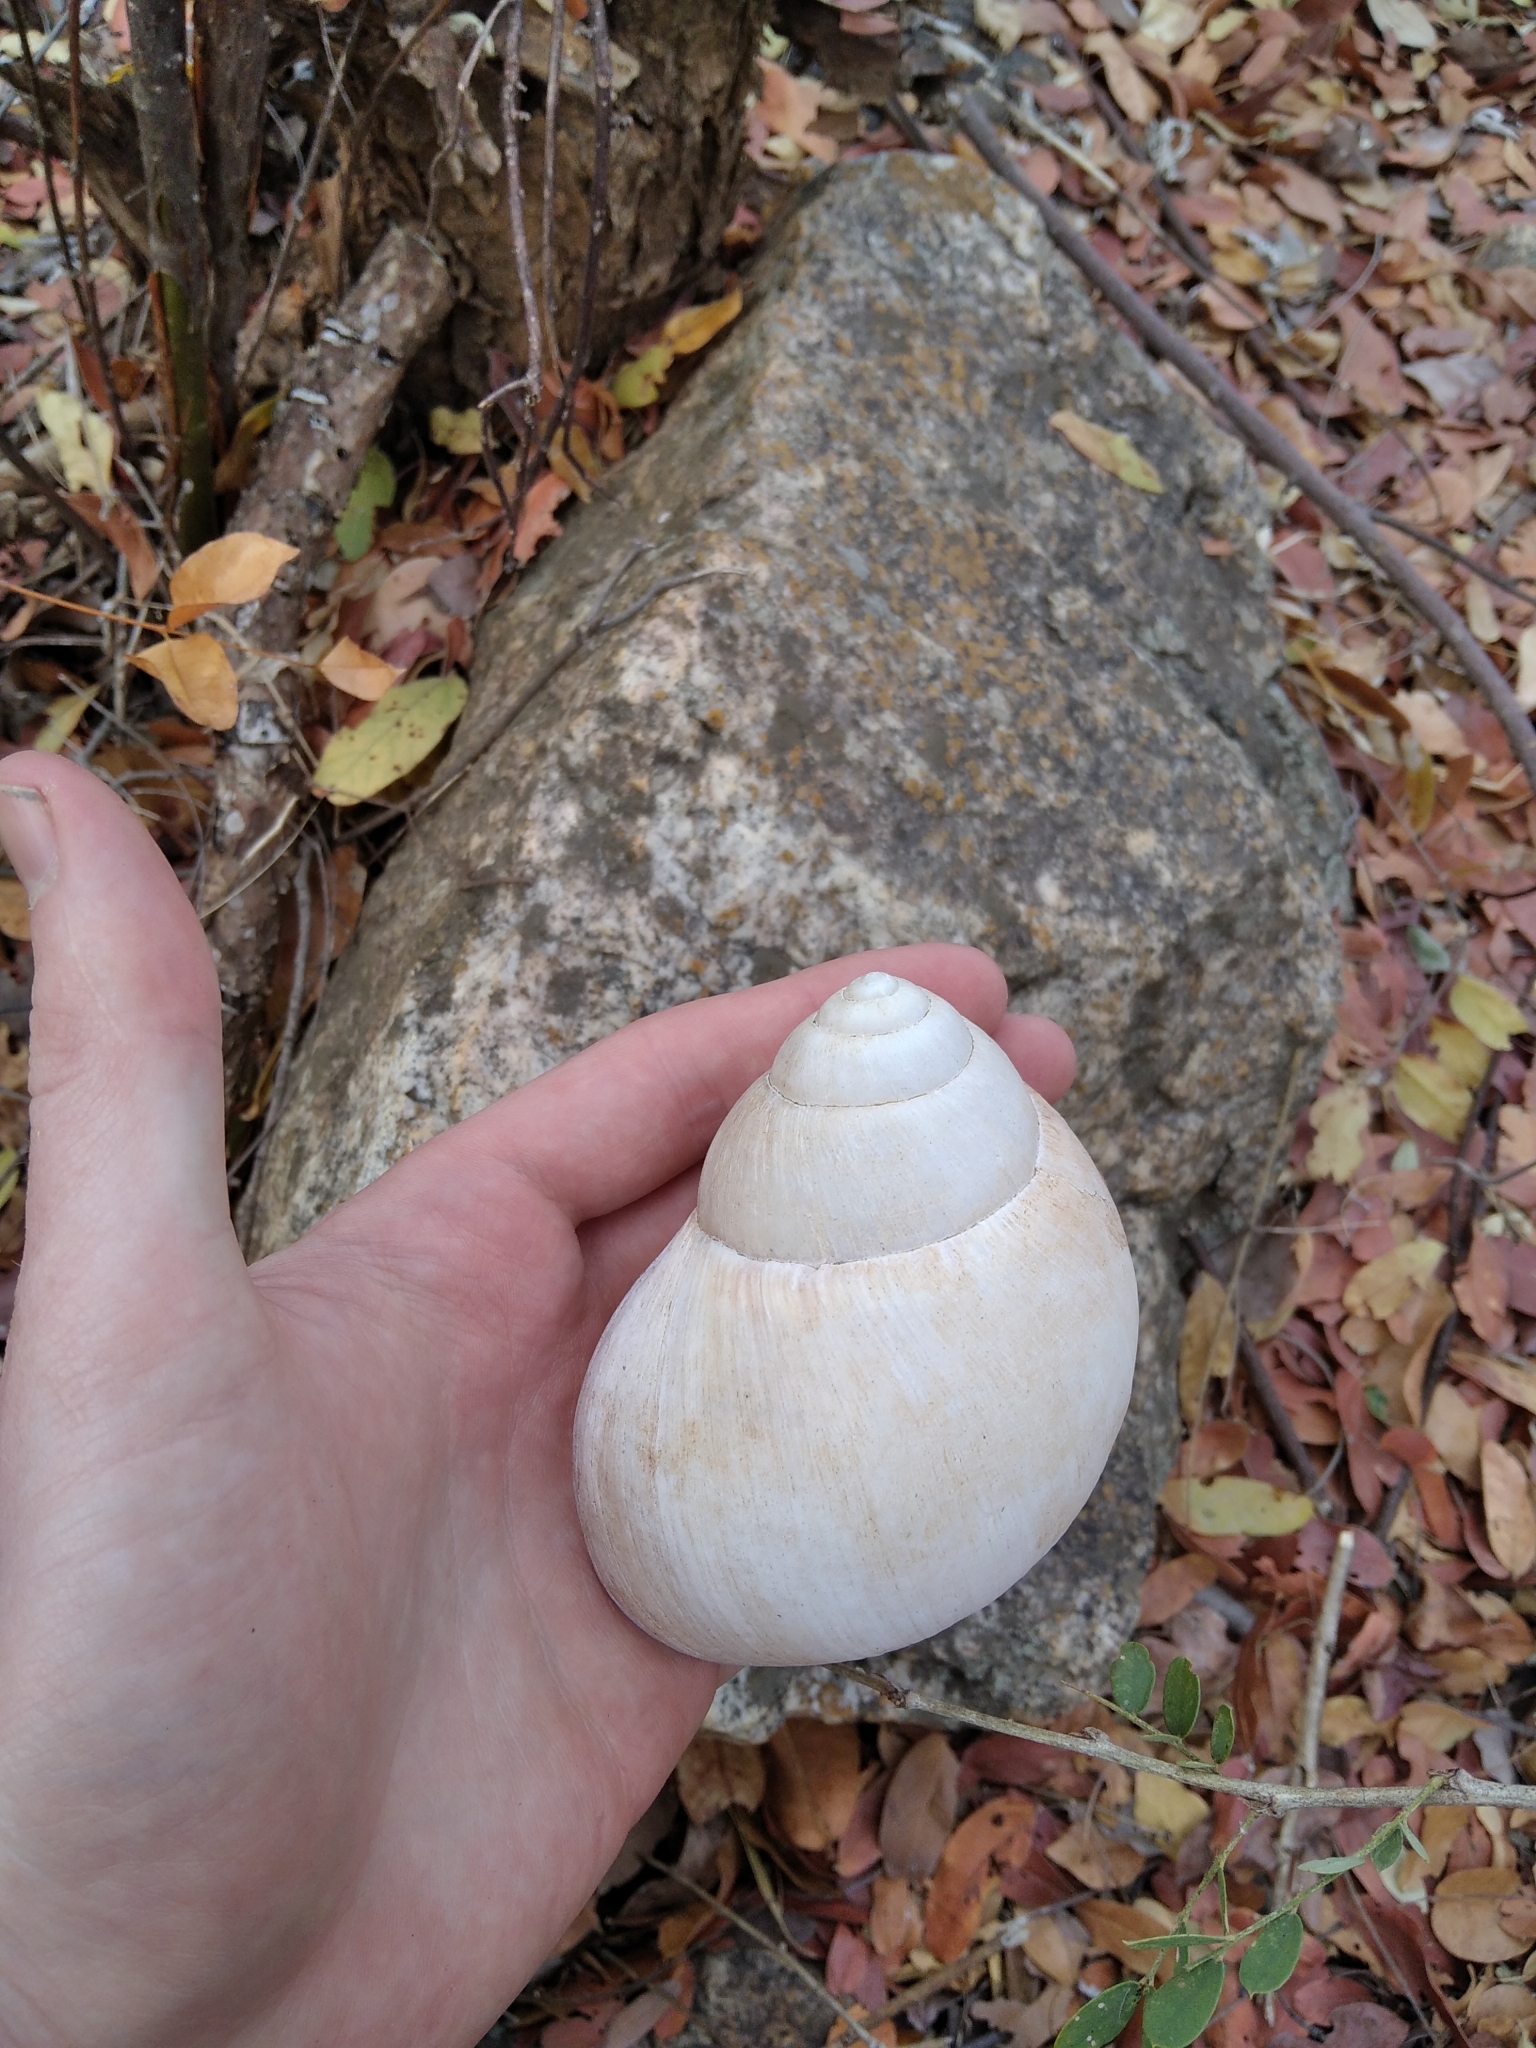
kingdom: Animalia
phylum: Mollusca
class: Gastropoda
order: Stylommatophora
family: Achatinidae
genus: Burtoa
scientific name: Burtoa nilotica
